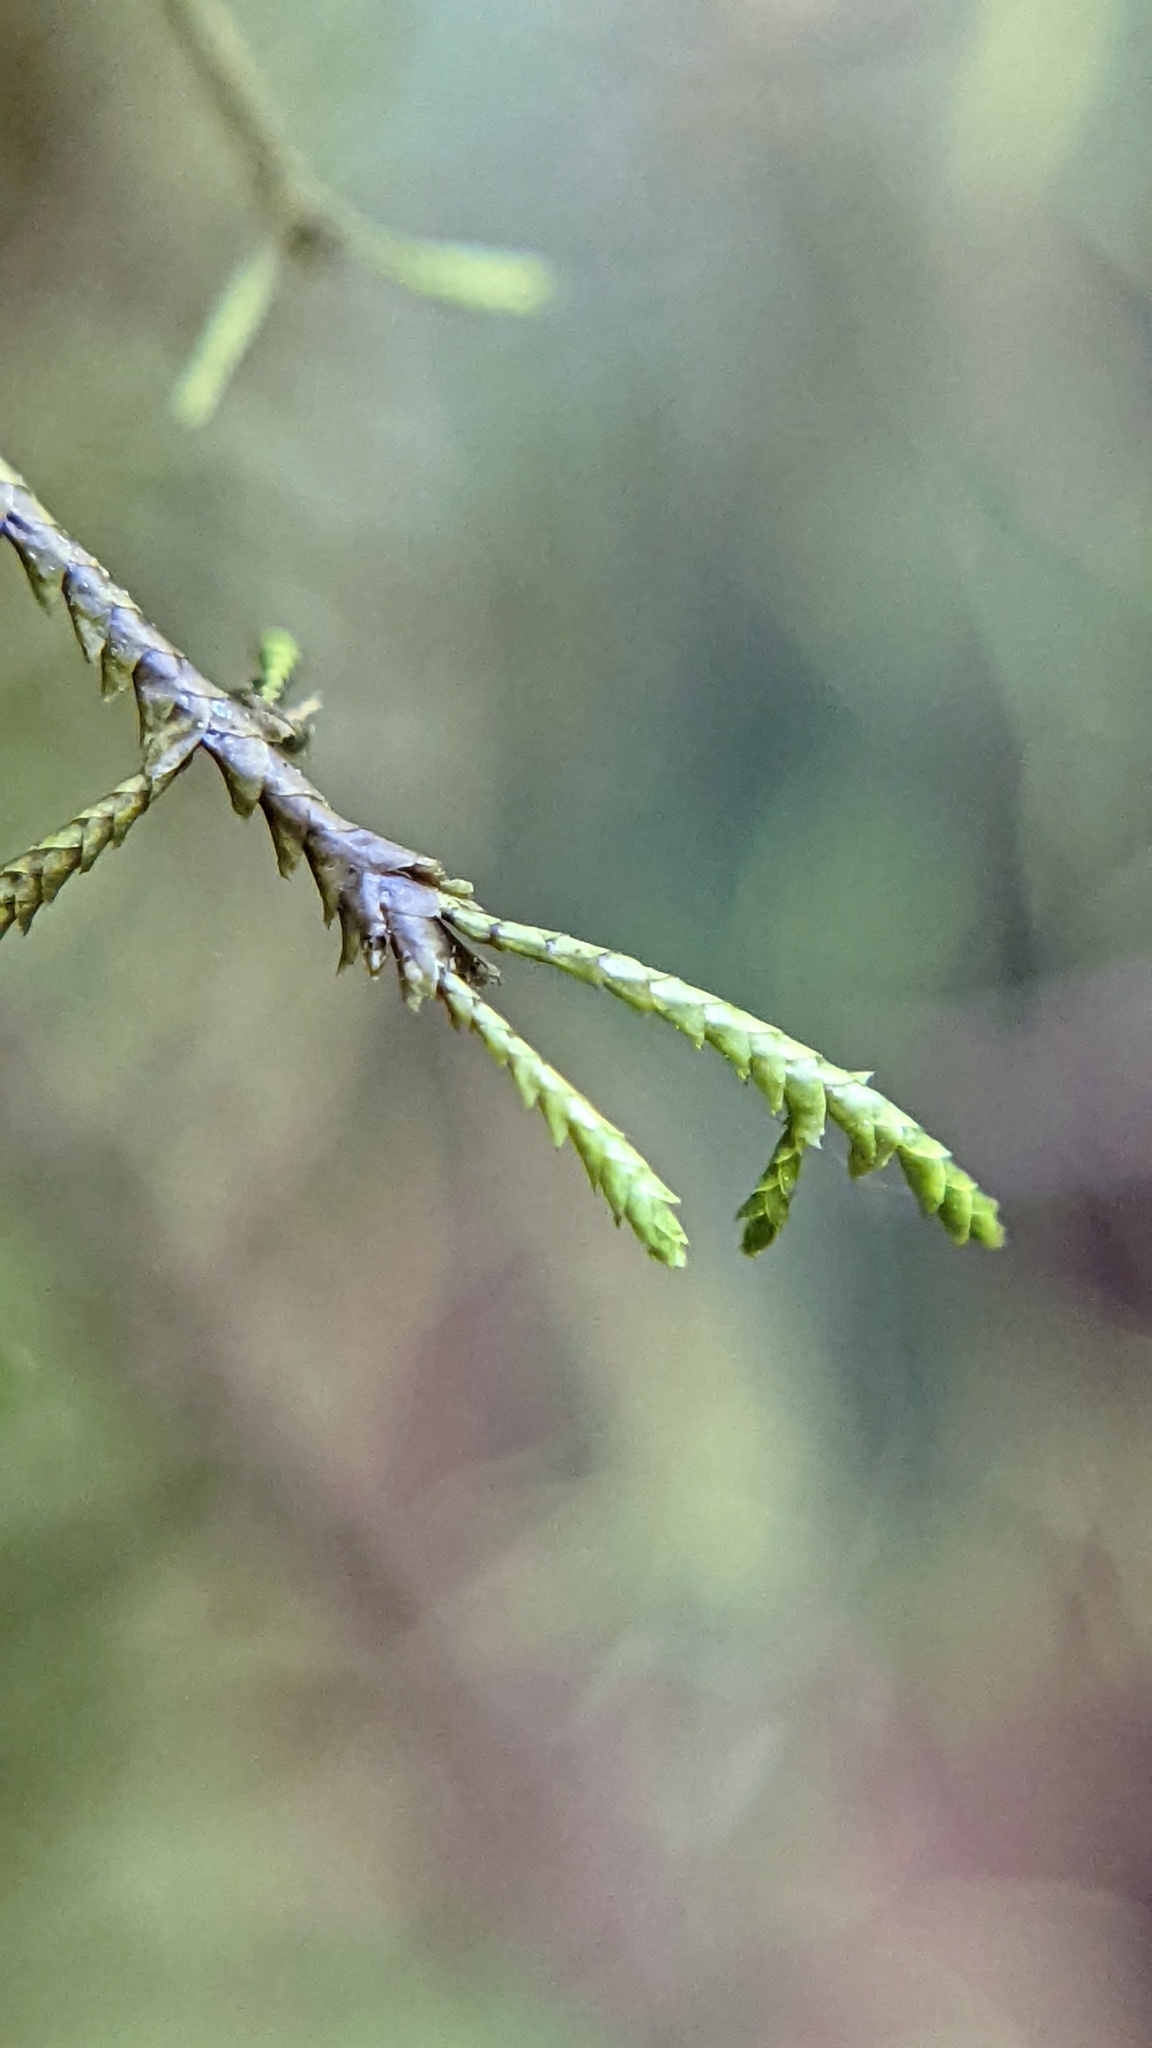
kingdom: Plantae
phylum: Marchantiophyta
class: Jungermanniopsida
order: Porellales
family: Lejeuneaceae
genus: Bryopteris
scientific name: Bryopteris filicina
